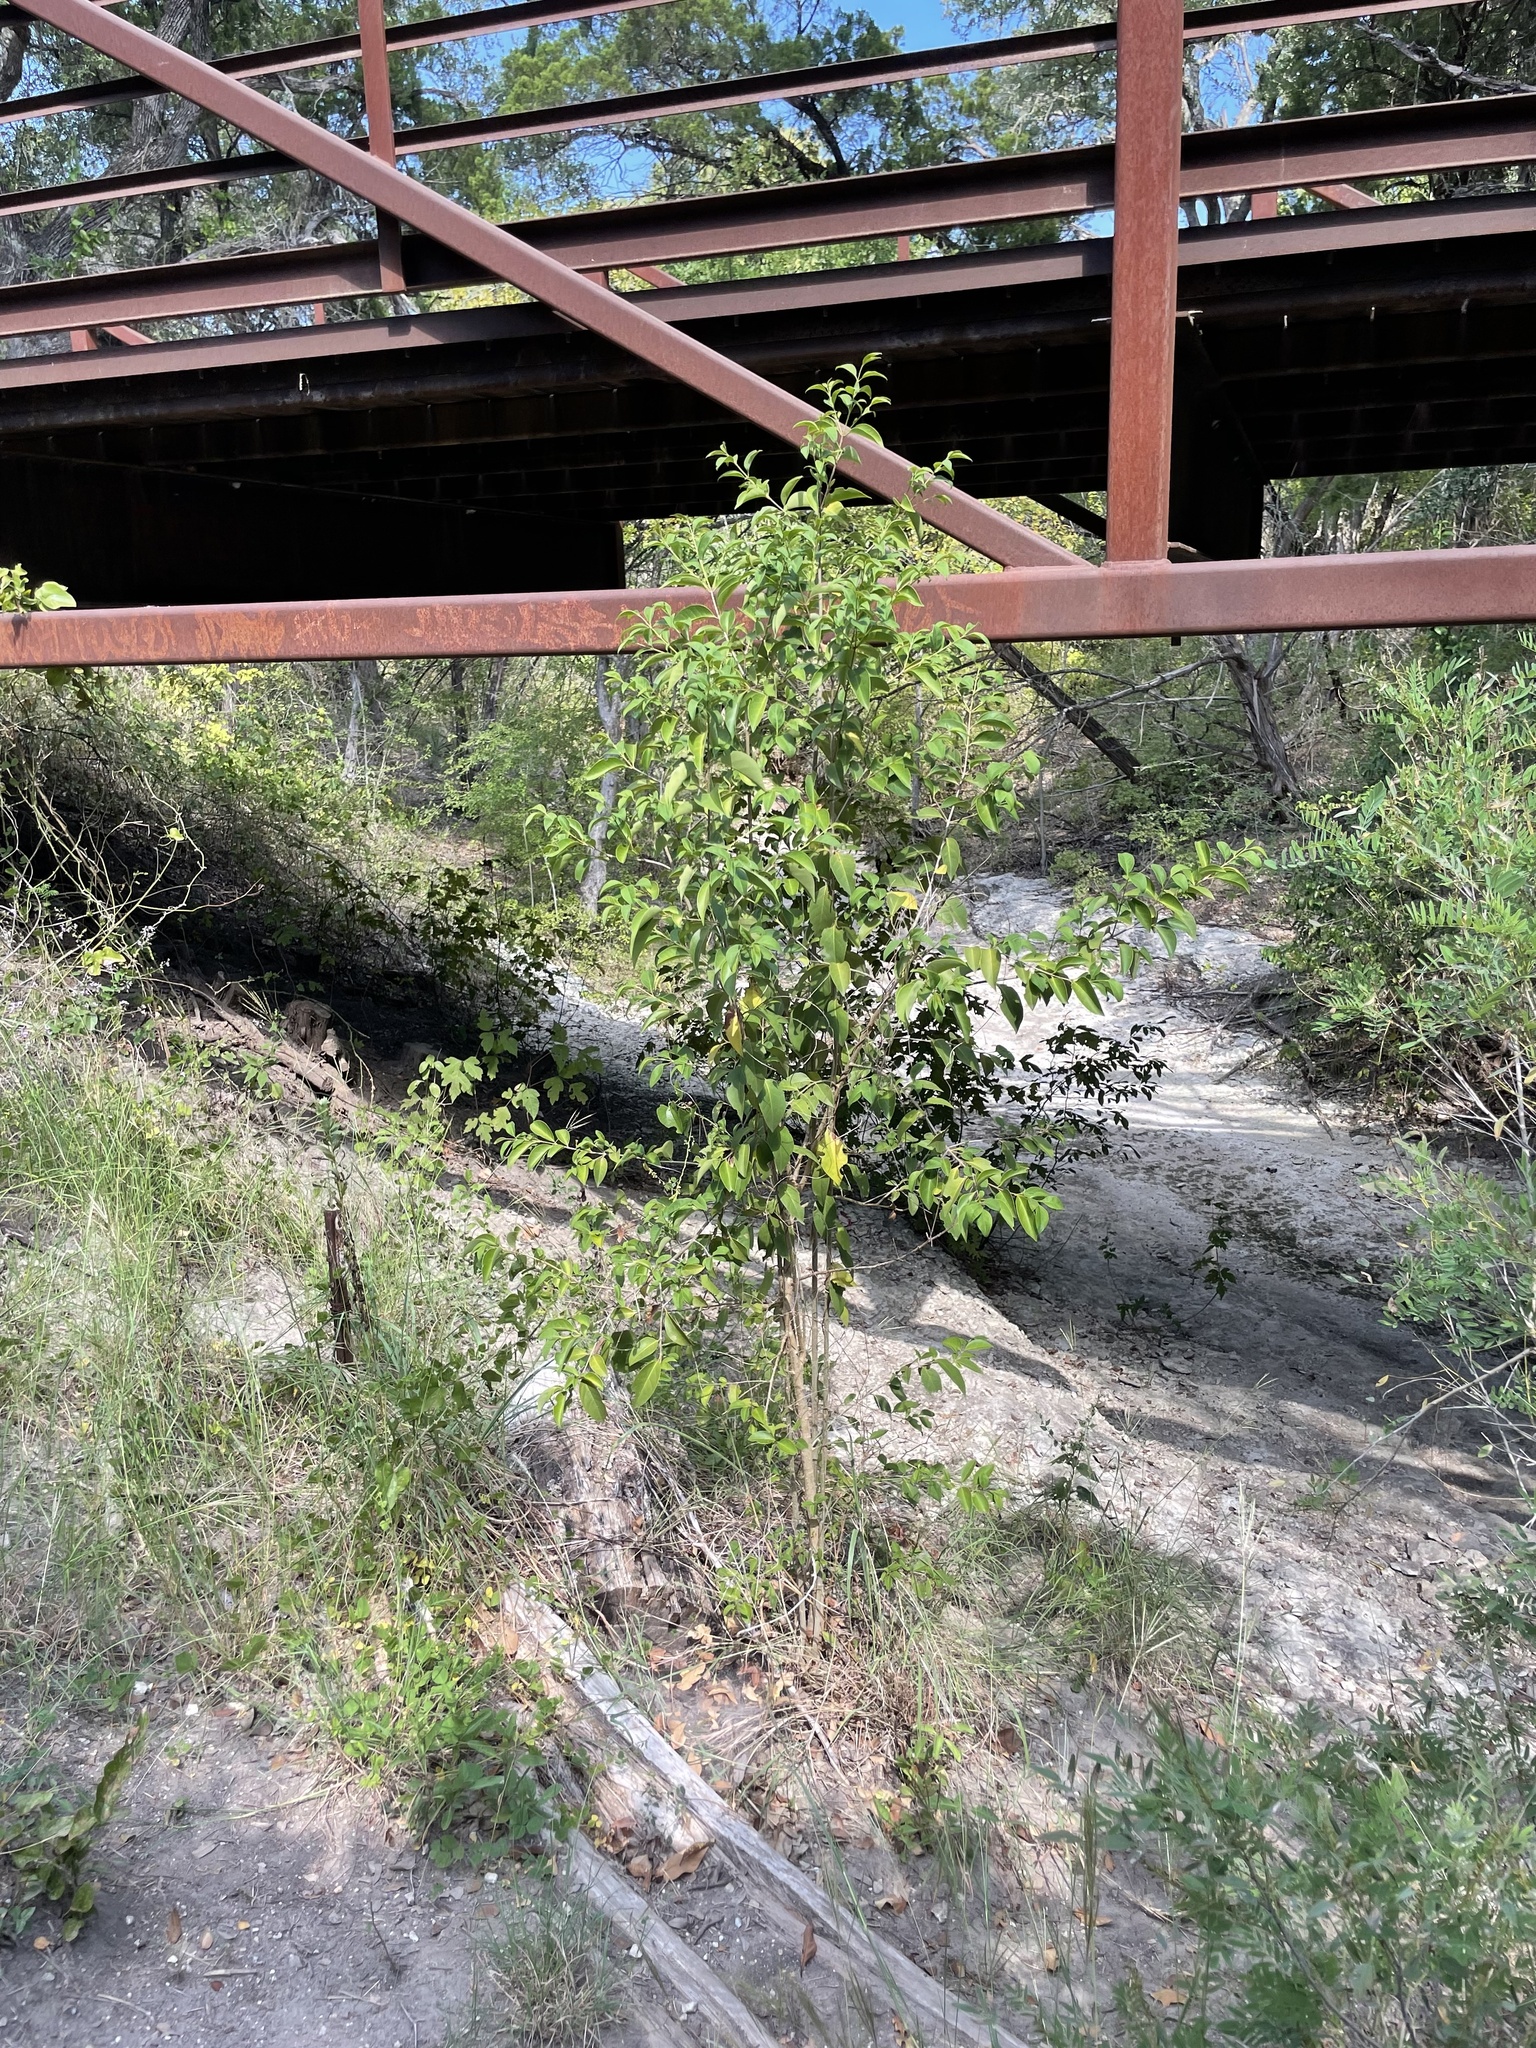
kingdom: Plantae
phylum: Tracheophyta
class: Magnoliopsida
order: Lamiales
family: Oleaceae
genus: Ligustrum
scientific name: Ligustrum lucidum
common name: Glossy privet
